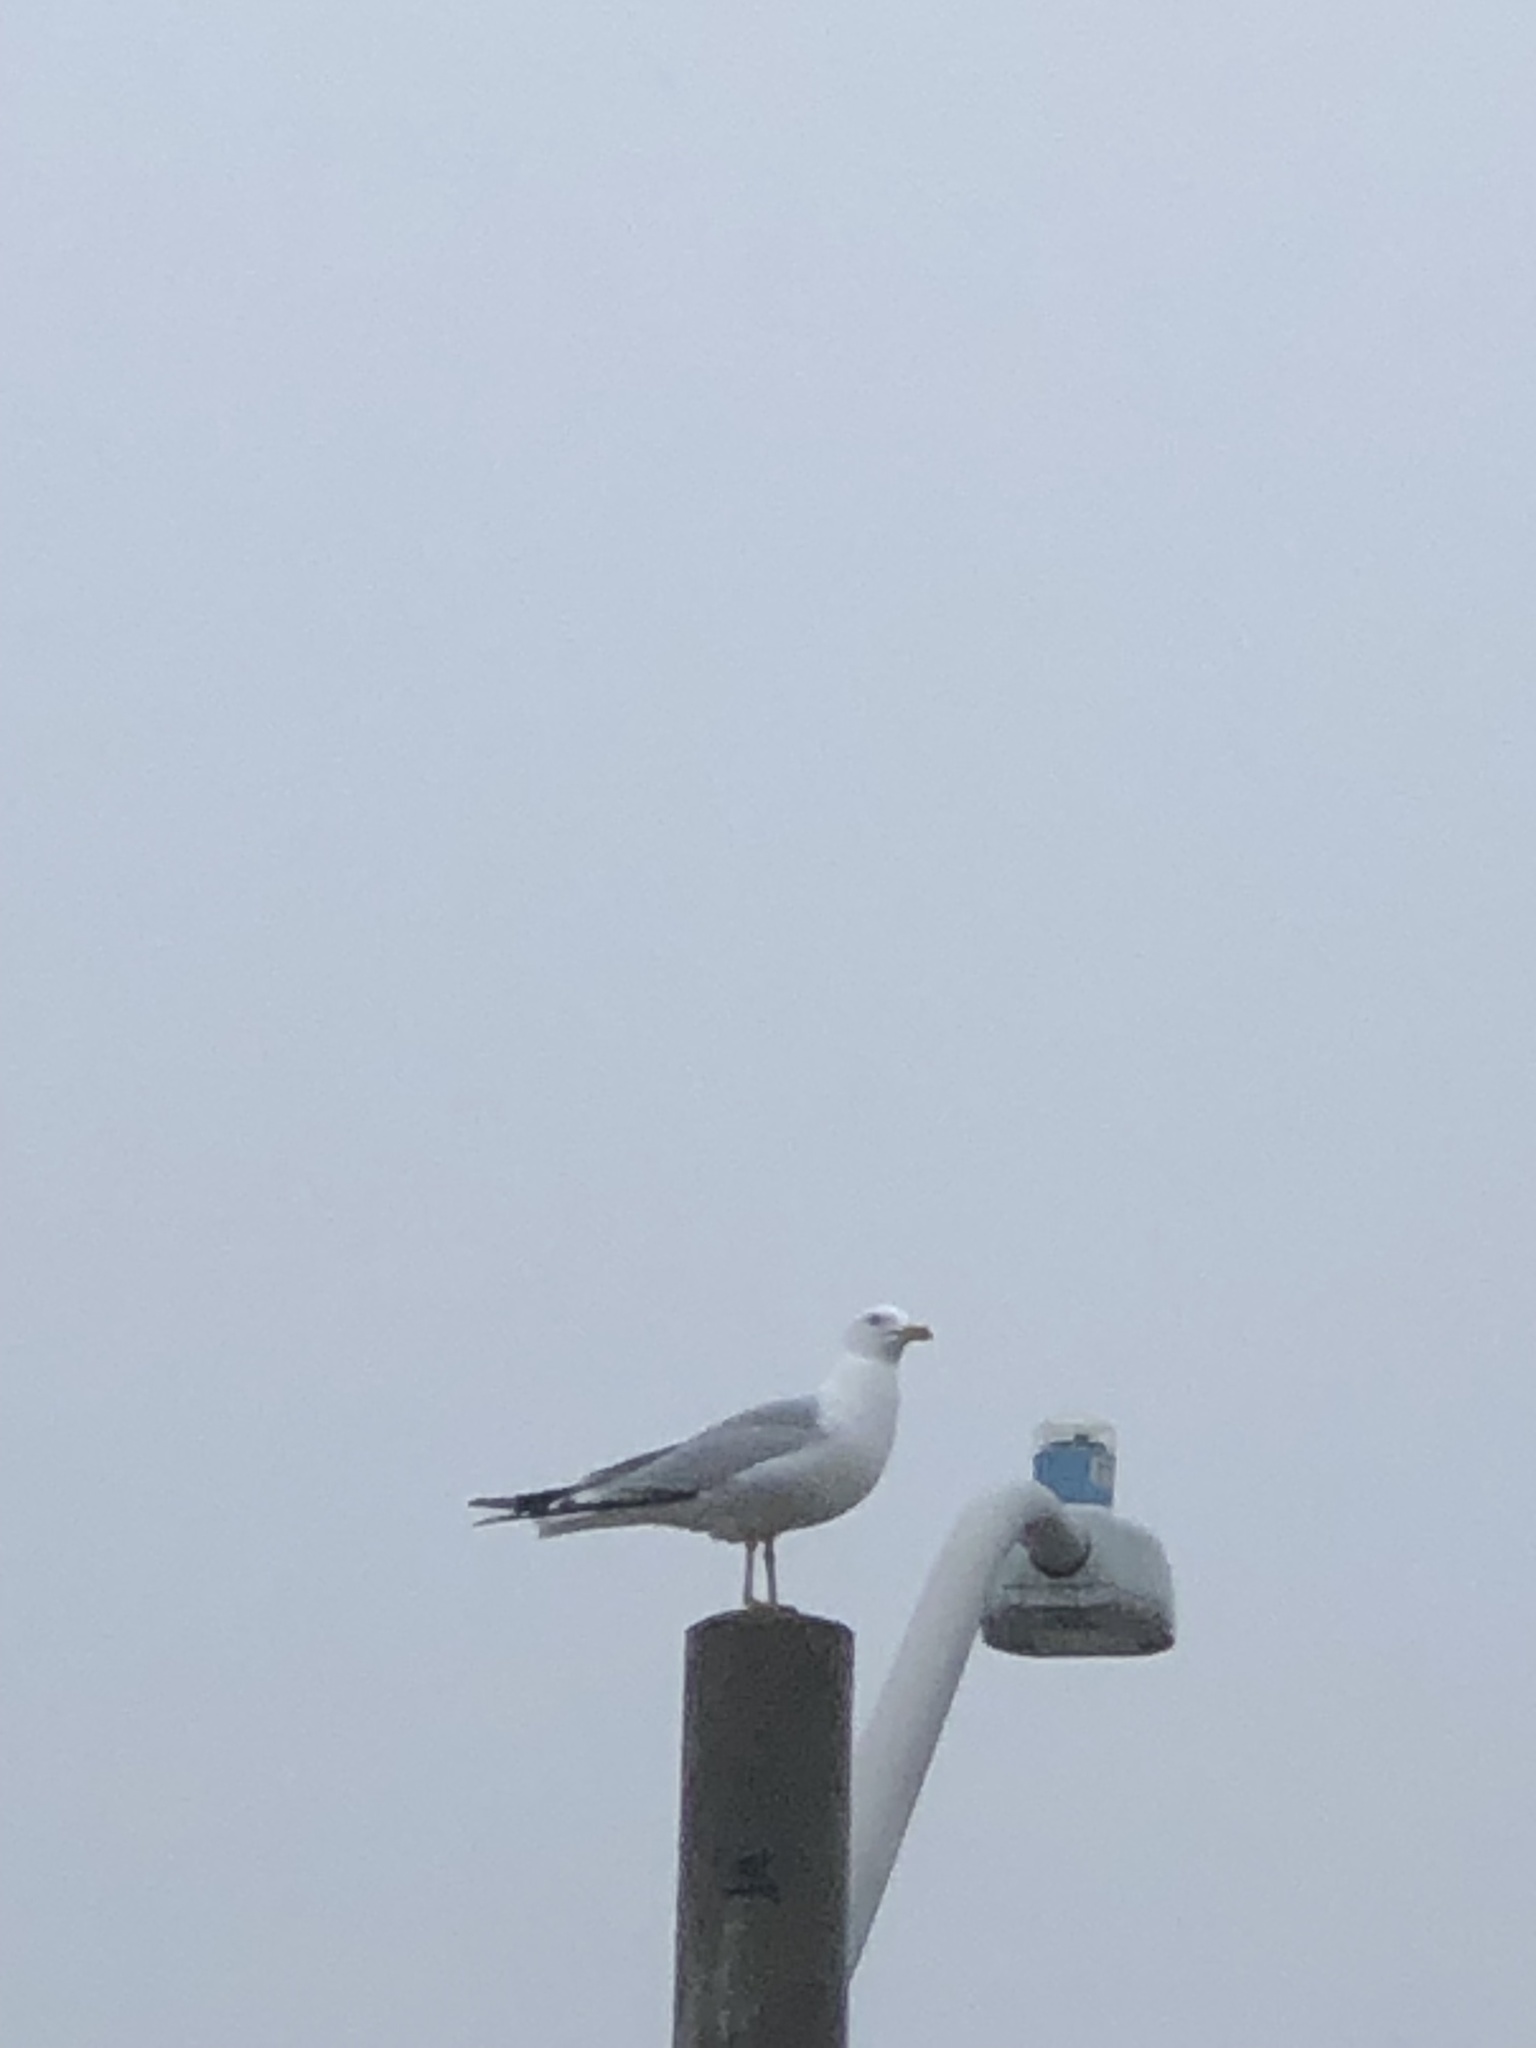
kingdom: Animalia
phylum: Chordata
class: Aves
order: Charadriiformes
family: Laridae
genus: Larus
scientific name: Larus delawarensis
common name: Ring-billed gull
